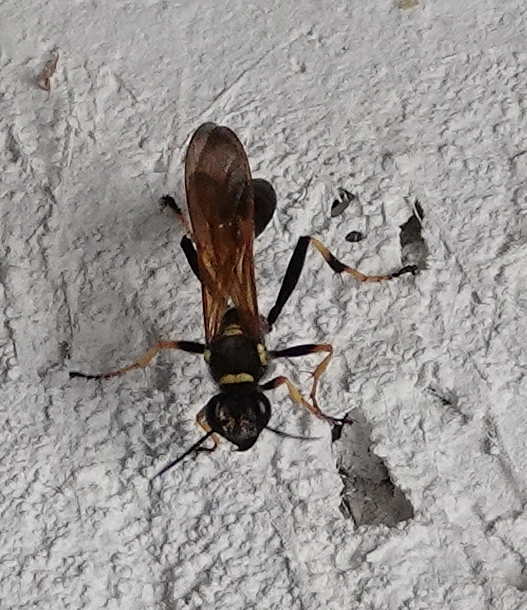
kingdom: Animalia
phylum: Arthropoda
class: Insecta
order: Hymenoptera
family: Sphecidae
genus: Sceliphron
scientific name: Sceliphron caementarium
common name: Mud dauber
